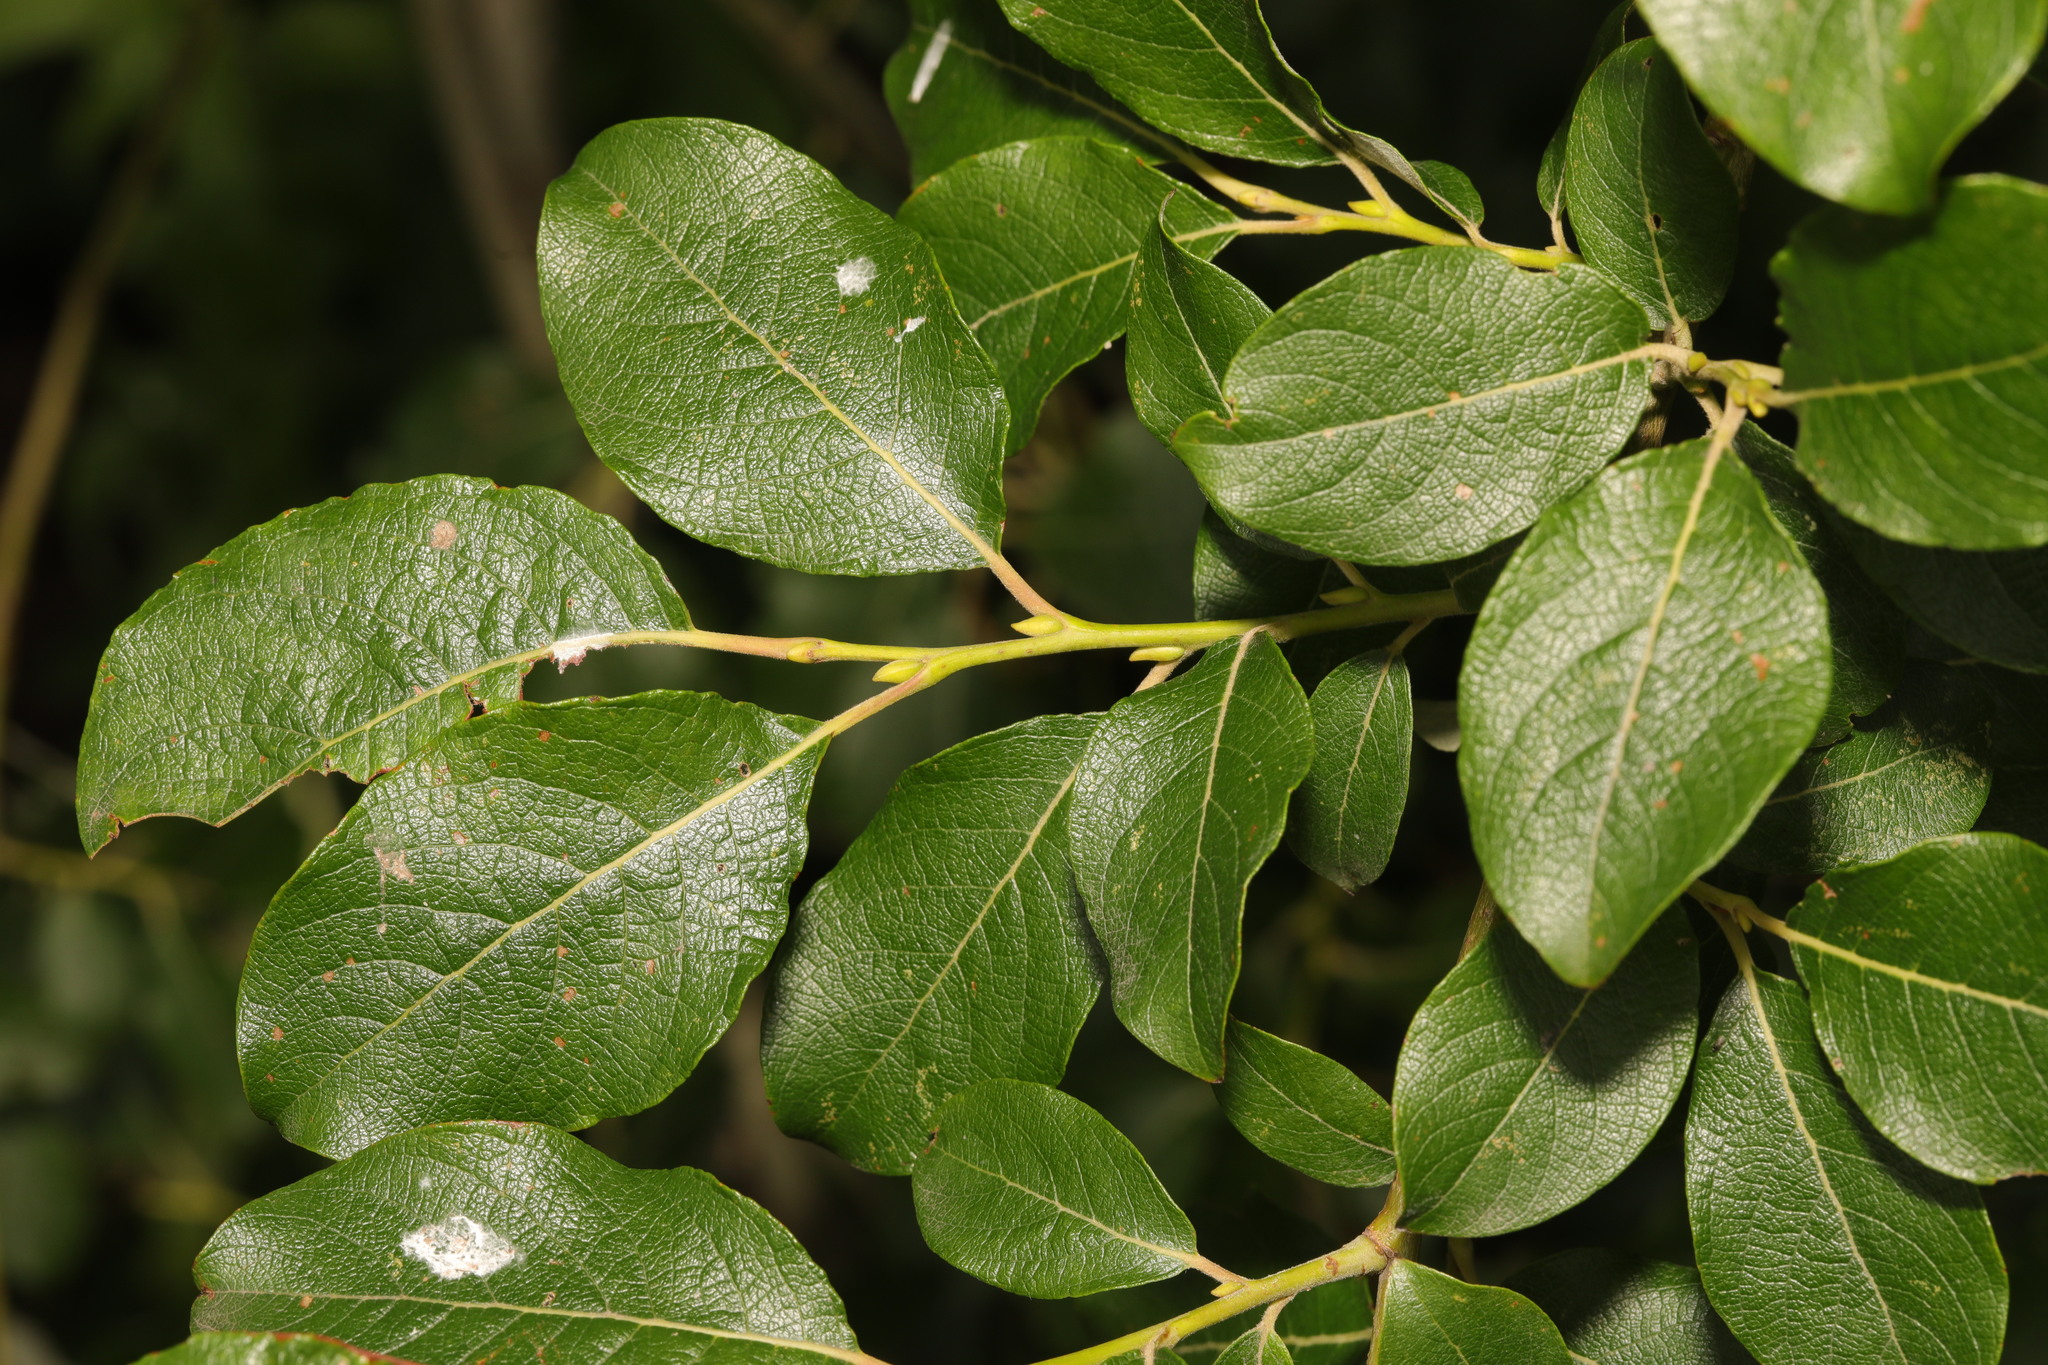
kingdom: Plantae
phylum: Tracheophyta
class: Magnoliopsida
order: Malpighiales
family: Salicaceae
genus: Salix
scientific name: Salix caprea
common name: Goat willow
